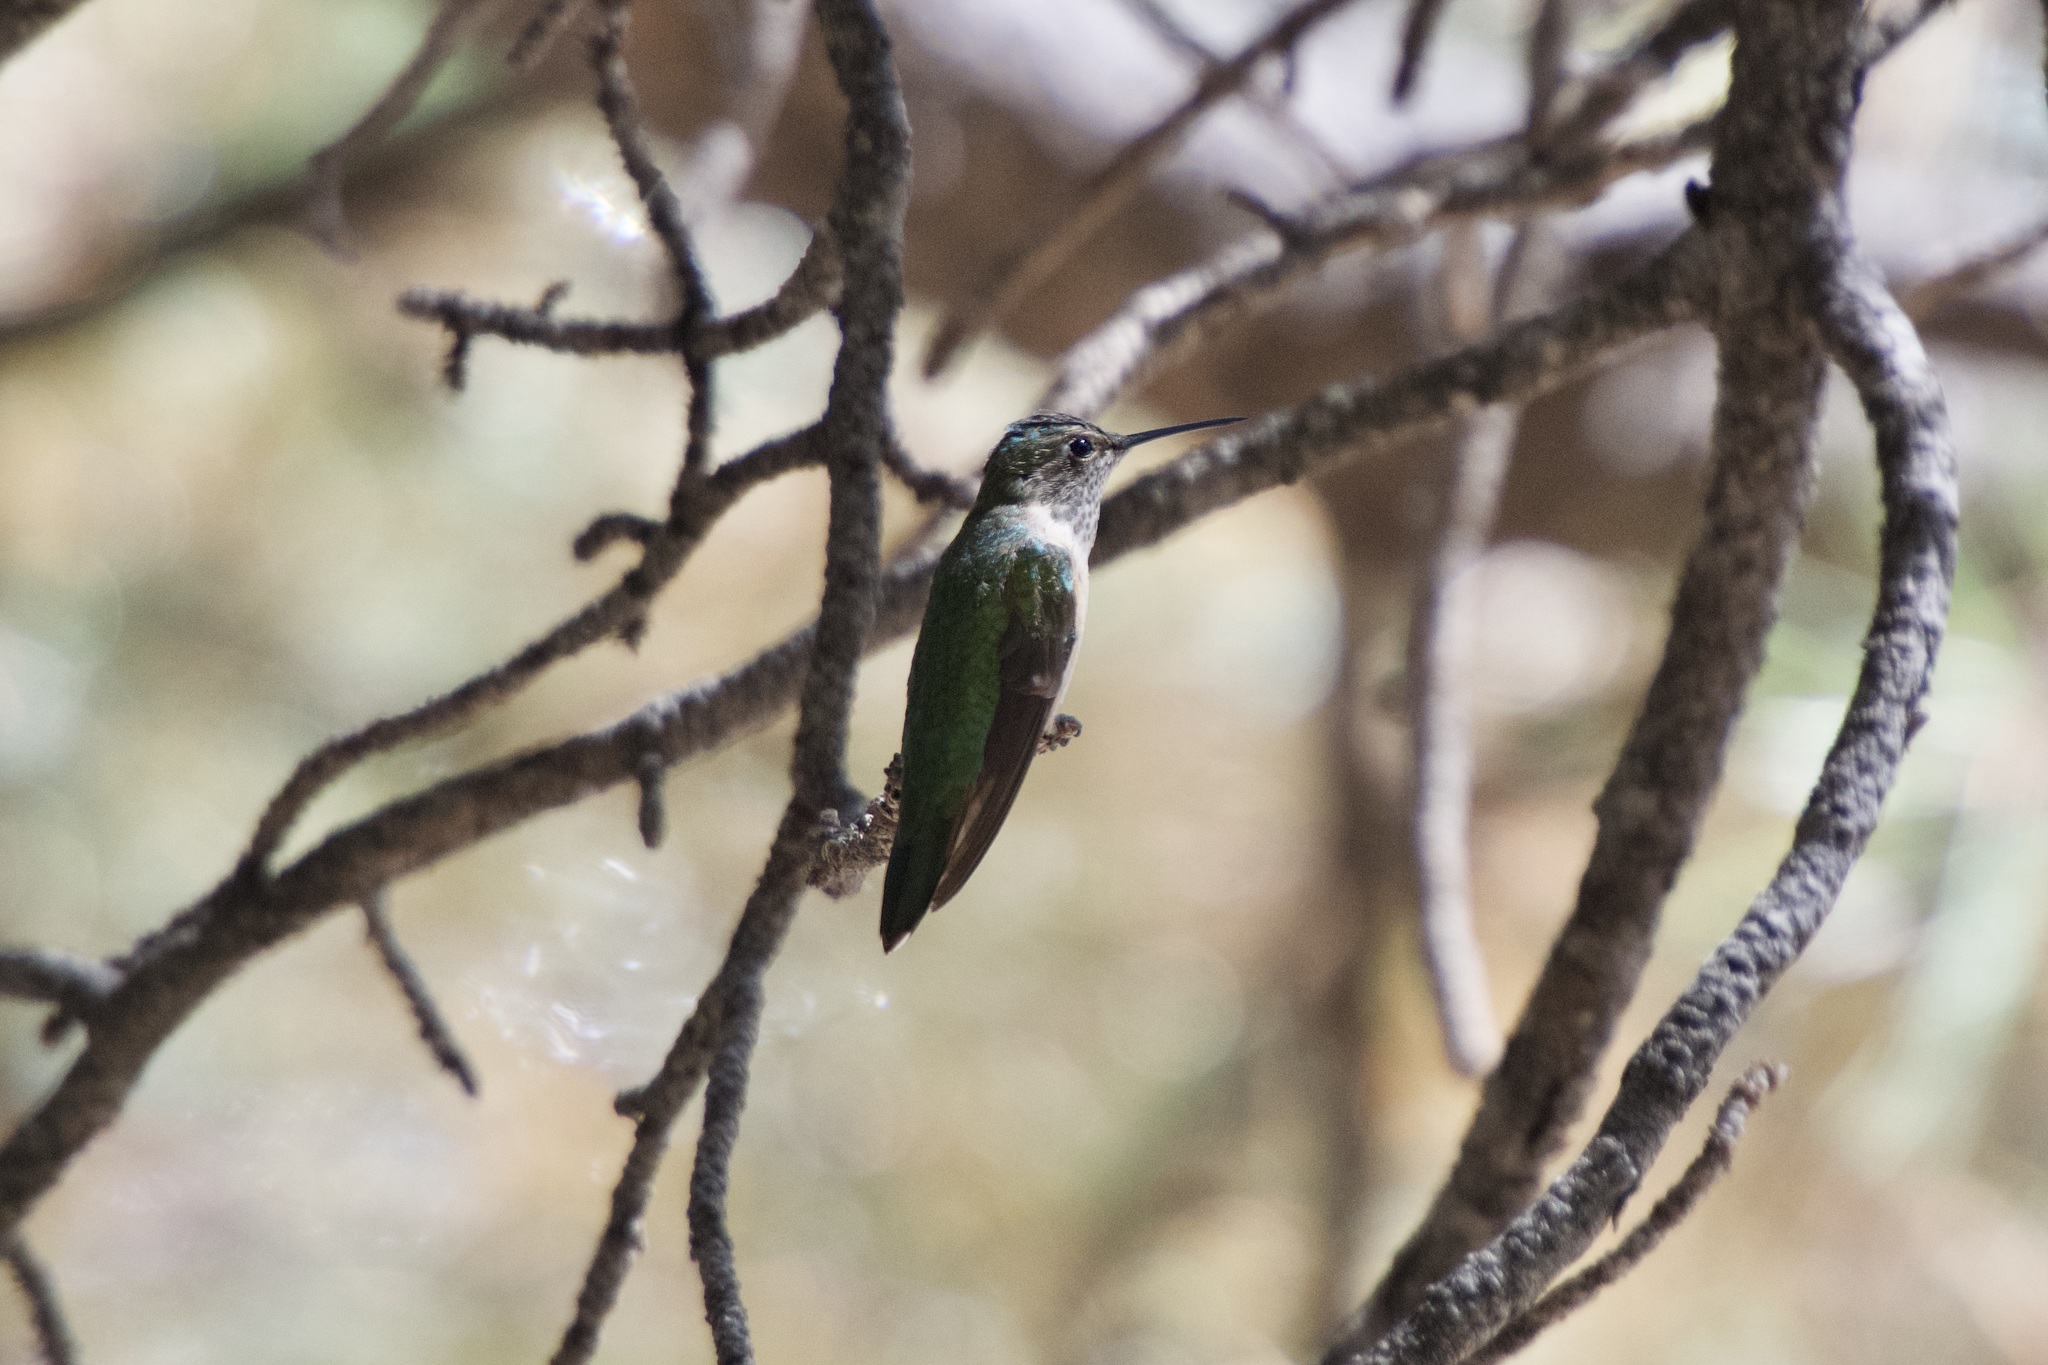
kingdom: Animalia
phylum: Chordata
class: Aves
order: Apodiformes
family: Trochilidae
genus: Selasphorus
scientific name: Selasphorus platycercus
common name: Broad-tailed hummingbird
